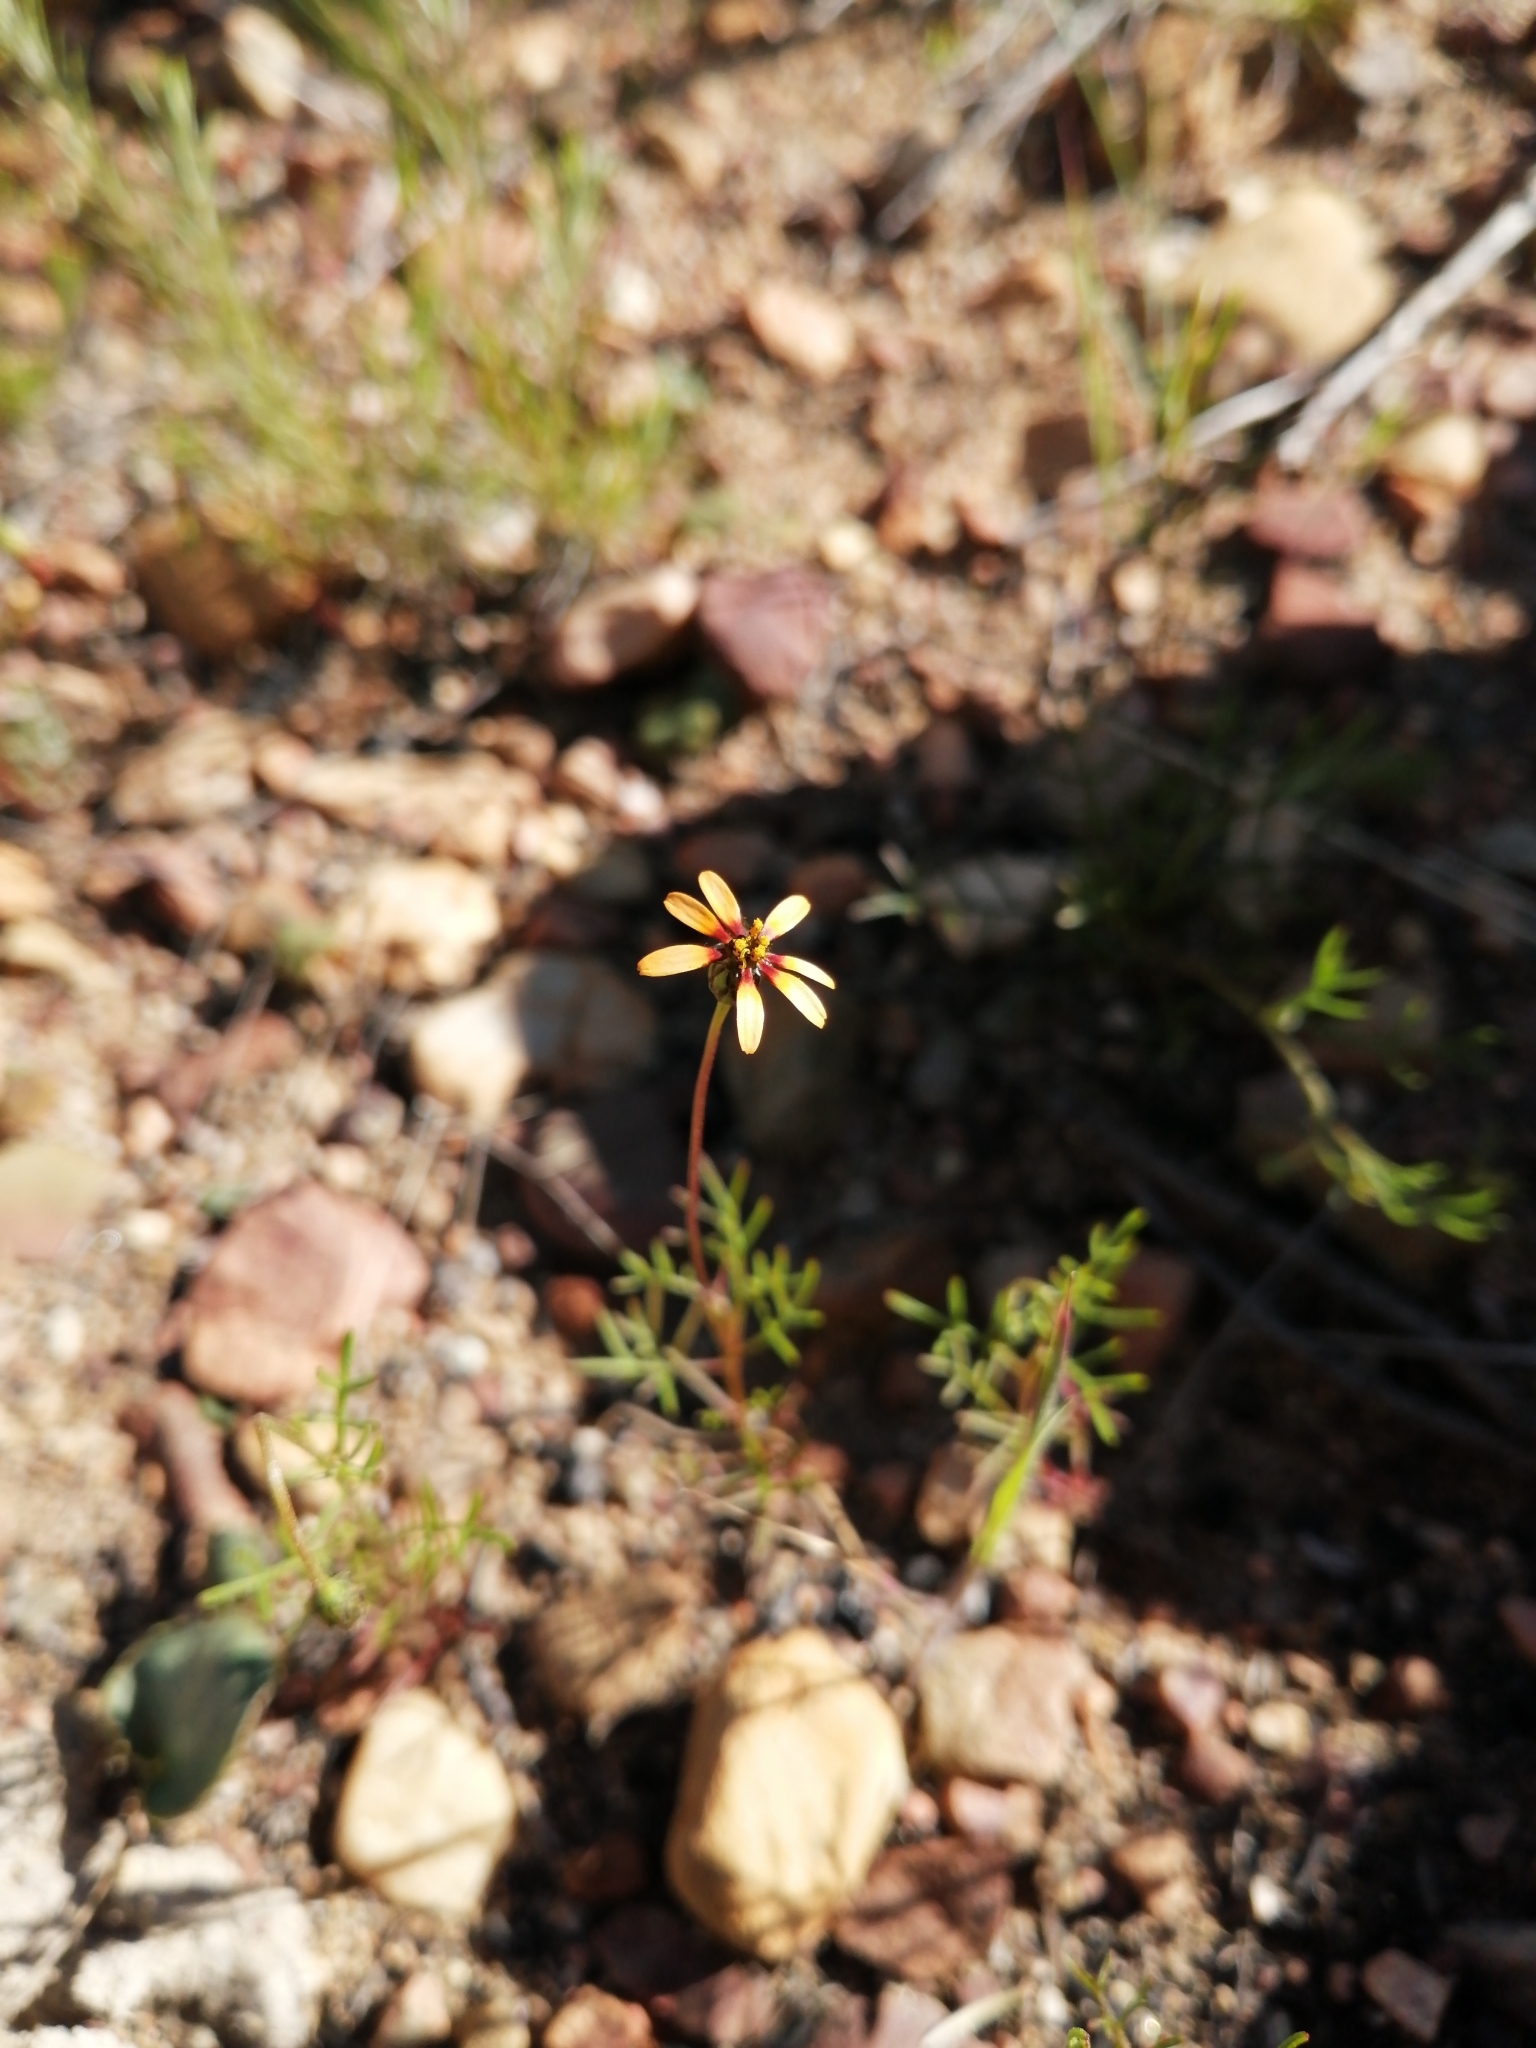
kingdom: Plantae
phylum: Tracheophyta
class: Magnoliopsida
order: Asterales
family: Asteraceae
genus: Ursinia
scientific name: Ursinia anthemoides
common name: Ursinia
